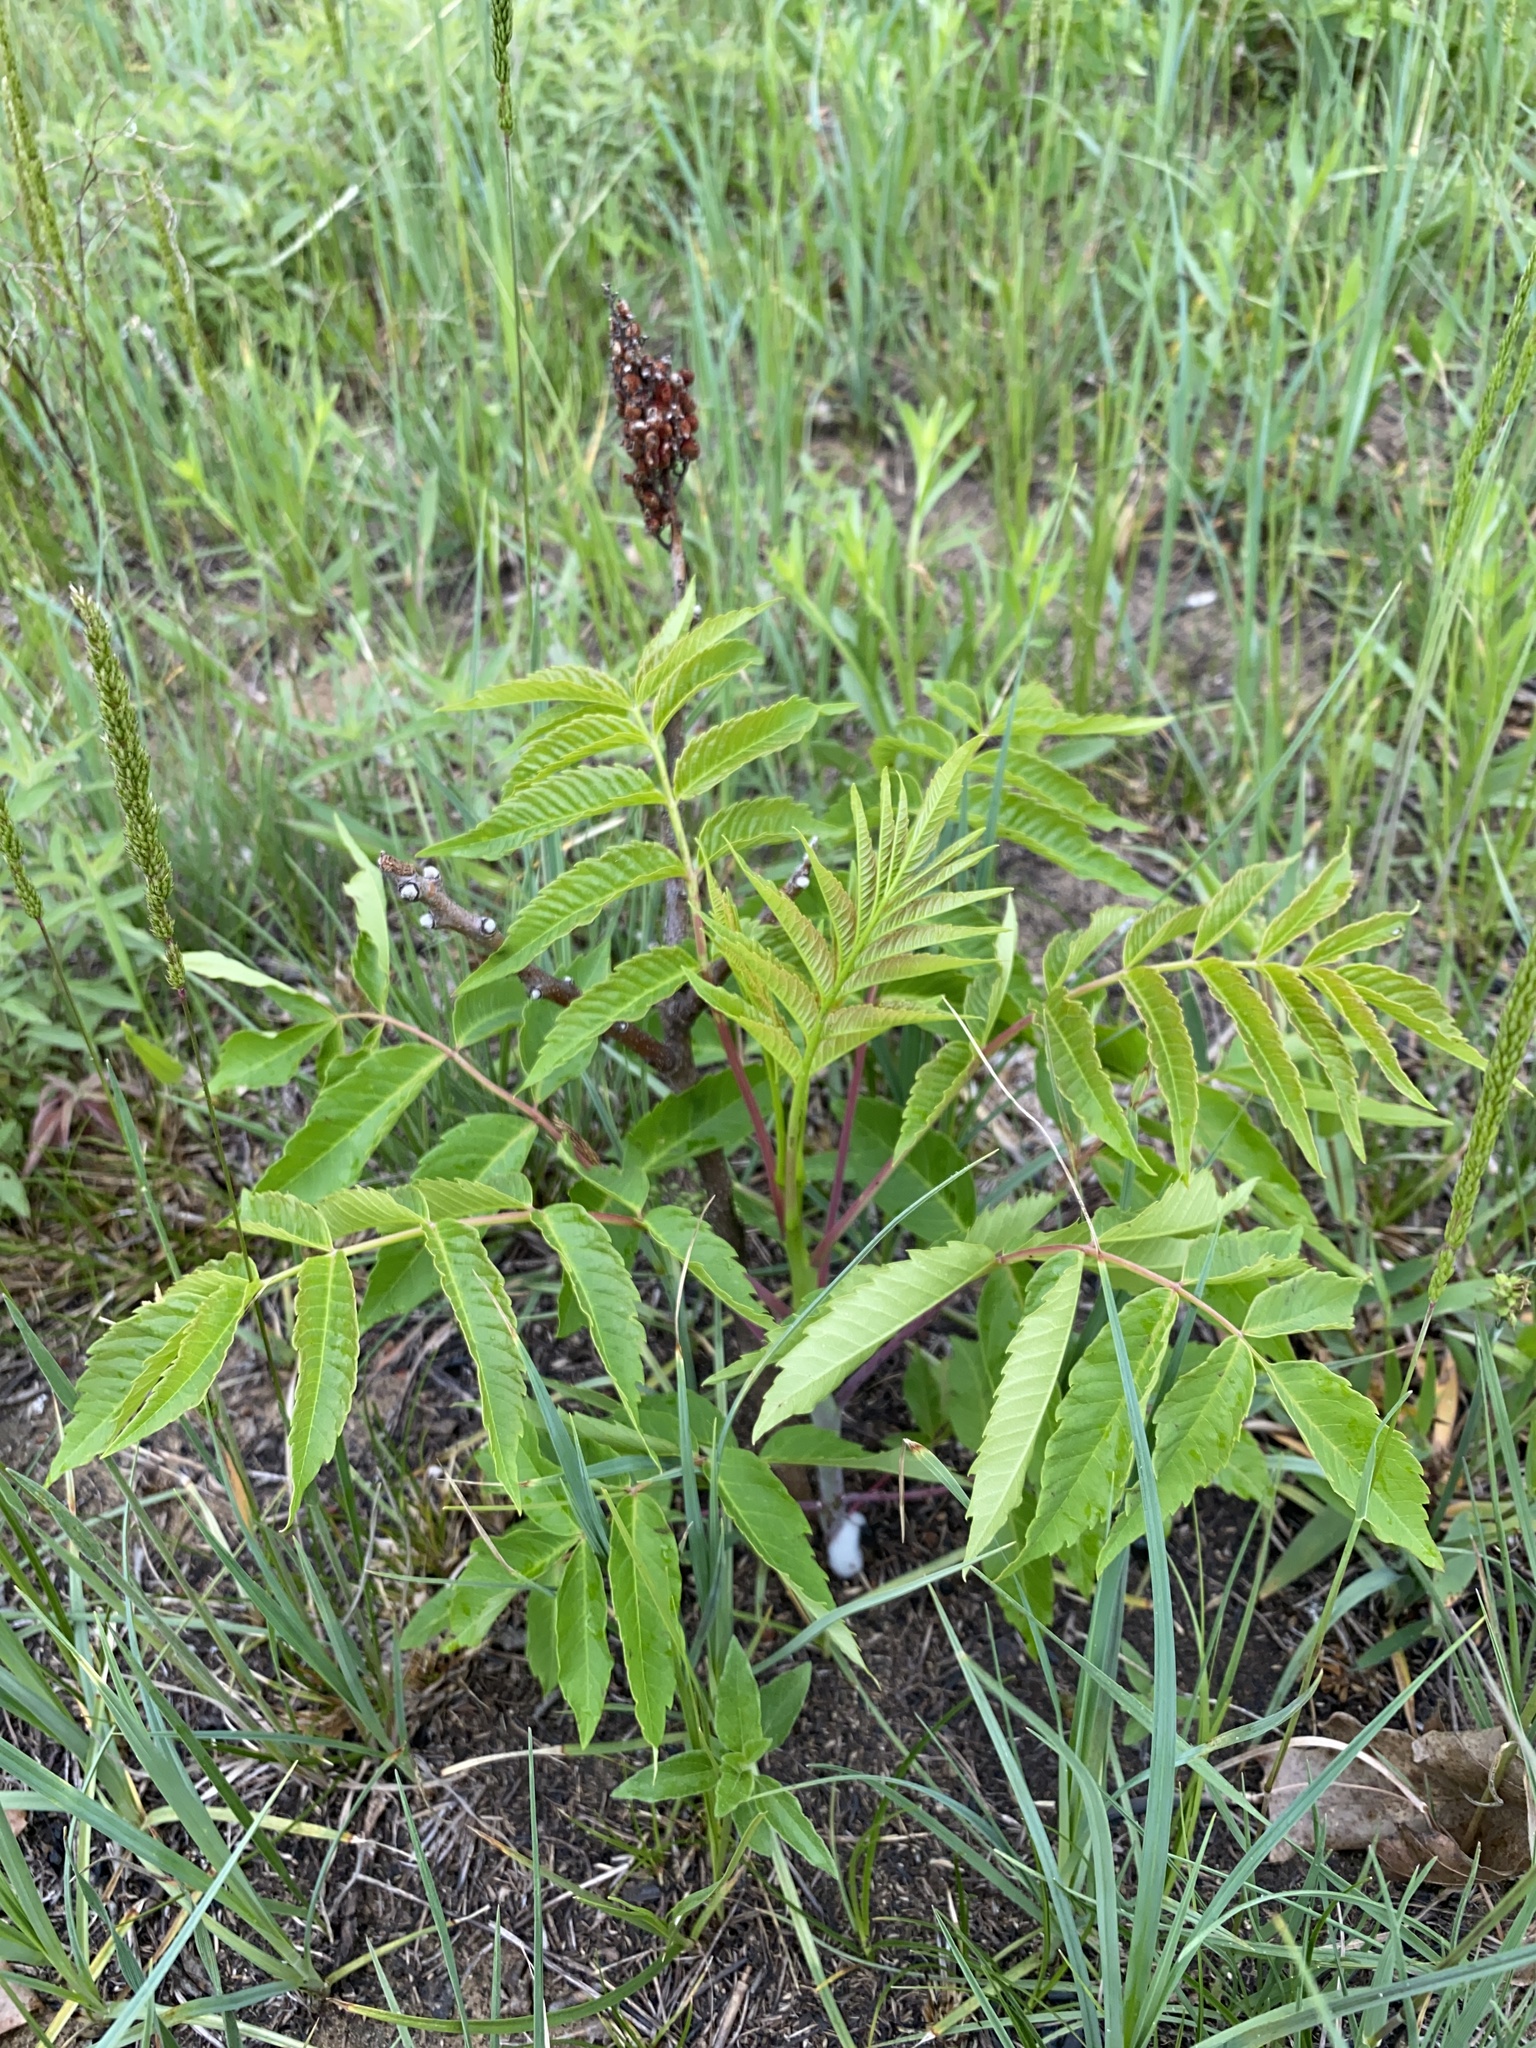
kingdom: Plantae
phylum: Tracheophyta
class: Magnoliopsida
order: Sapindales
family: Anacardiaceae
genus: Rhus
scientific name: Rhus glabra
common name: Scarlet sumac
